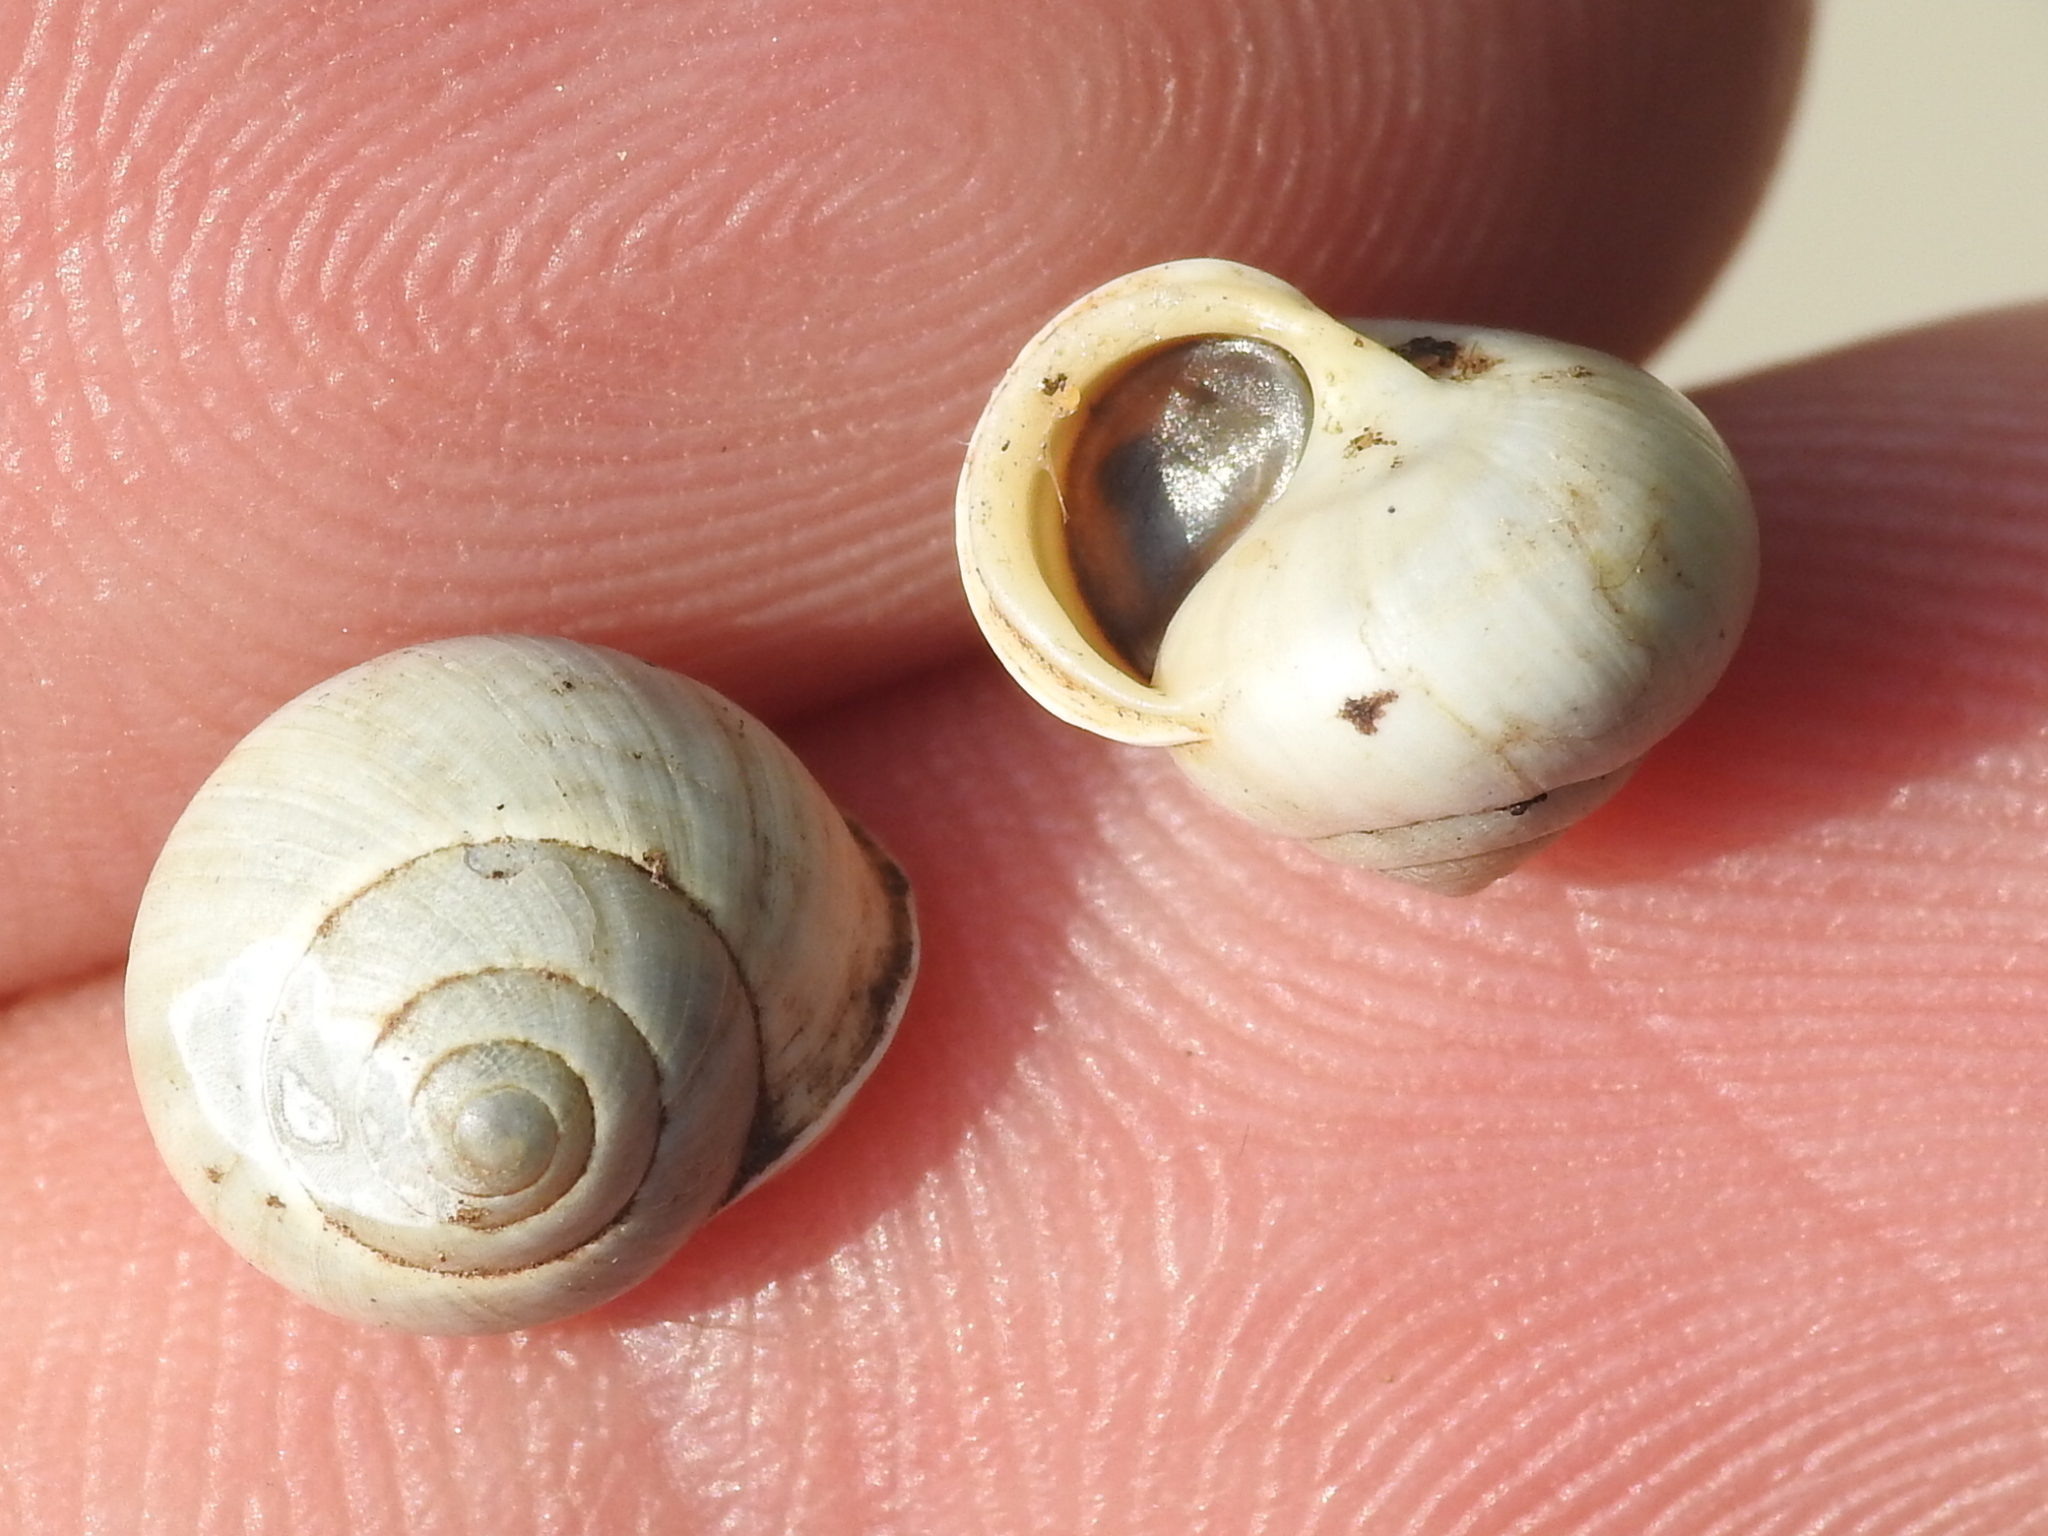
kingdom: Animalia
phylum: Mollusca
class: Gastropoda
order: Cycloneritida
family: Helicinidae
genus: Helicina
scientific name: Helicina orbiculata
